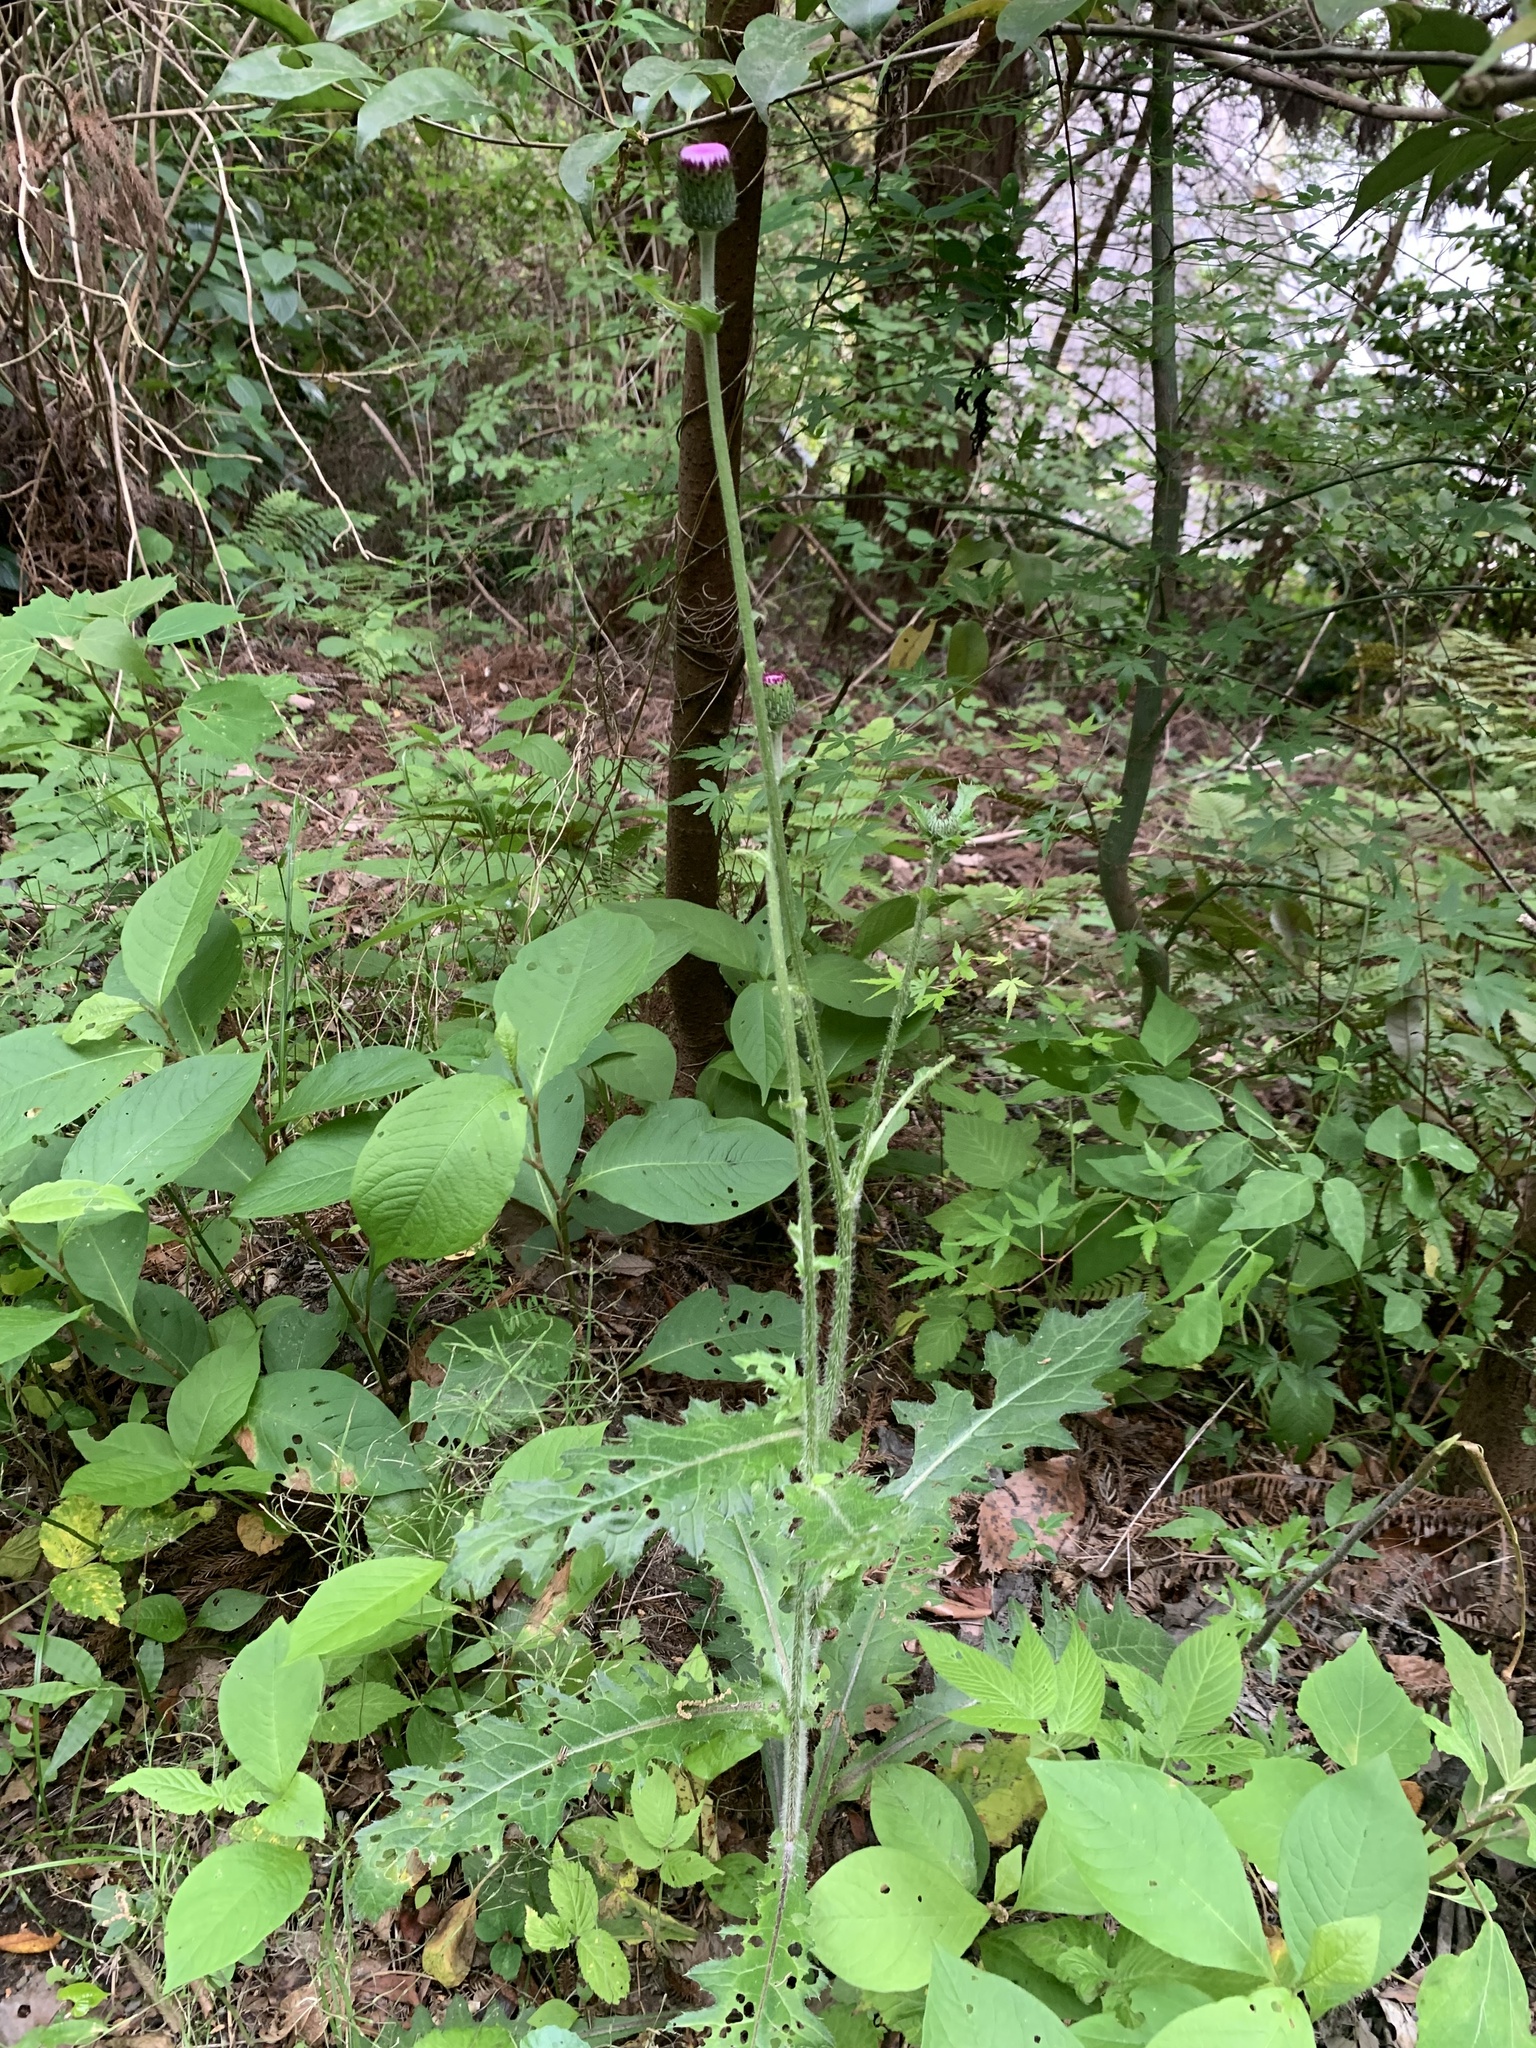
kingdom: Plantae
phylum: Tracheophyta
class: Magnoliopsida
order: Asterales
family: Asteraceae
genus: Cirsium
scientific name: Cirsium japonicum
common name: Japanese thistle
